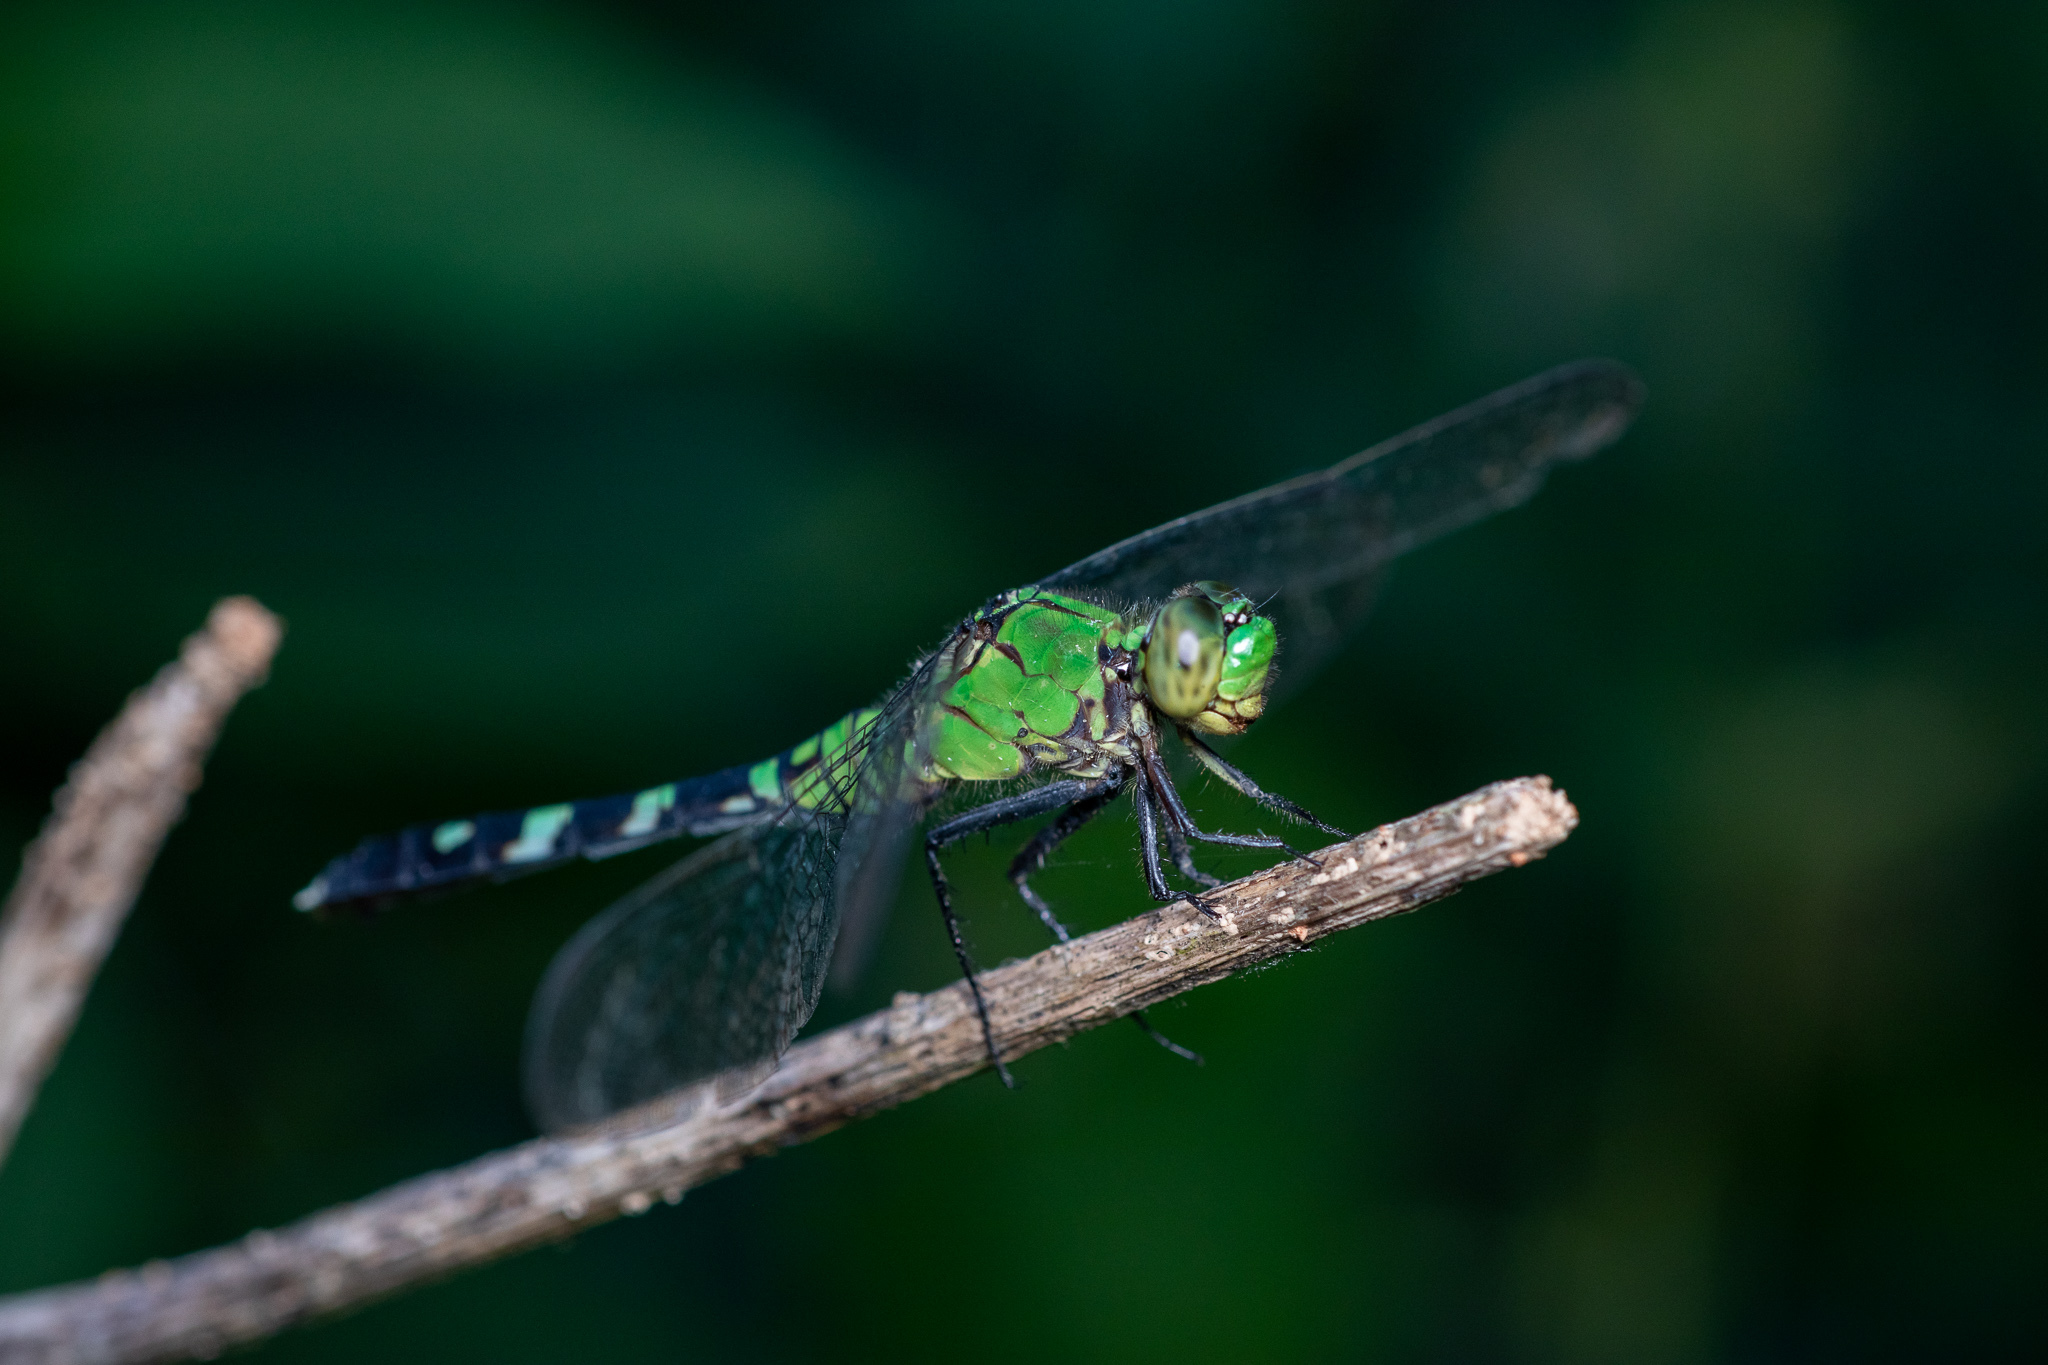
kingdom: Animalia
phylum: Arthropoda
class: Insecta
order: Odonata
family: Libellulidae
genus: Erythemis
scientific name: Erythemis simplicicollis
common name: Eastern pondhawk
